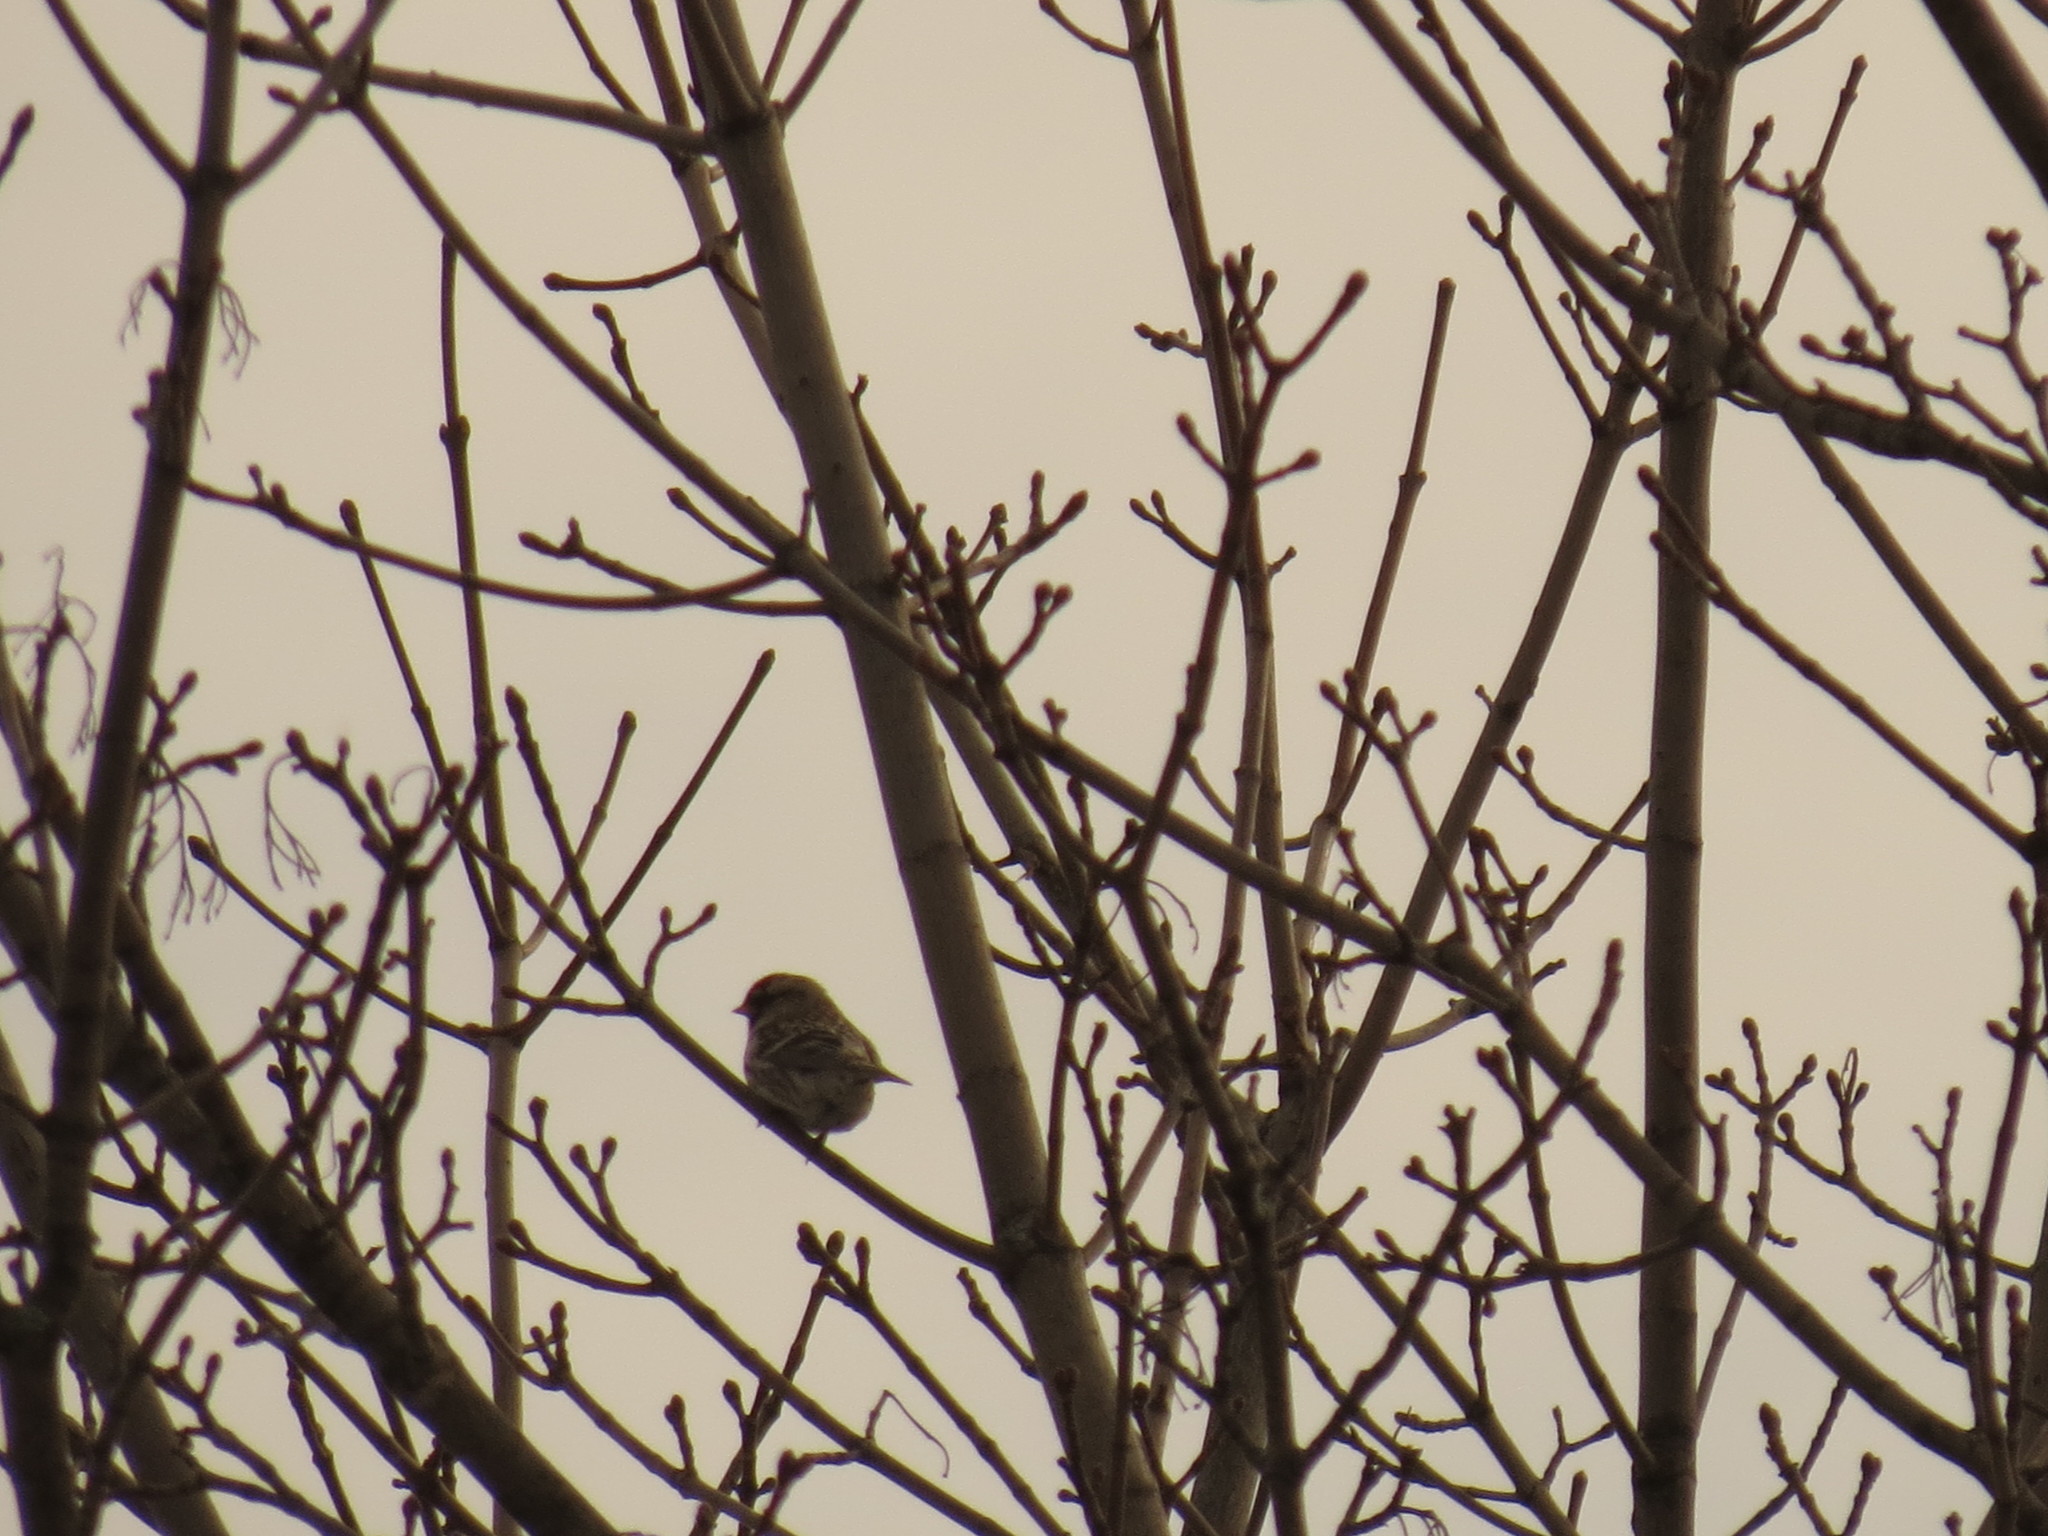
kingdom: Animalia
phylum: Chordata
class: Aves
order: Passeriformes
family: Fringillidae
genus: Acanthis
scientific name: Acanthis flammea
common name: Common redpoll
